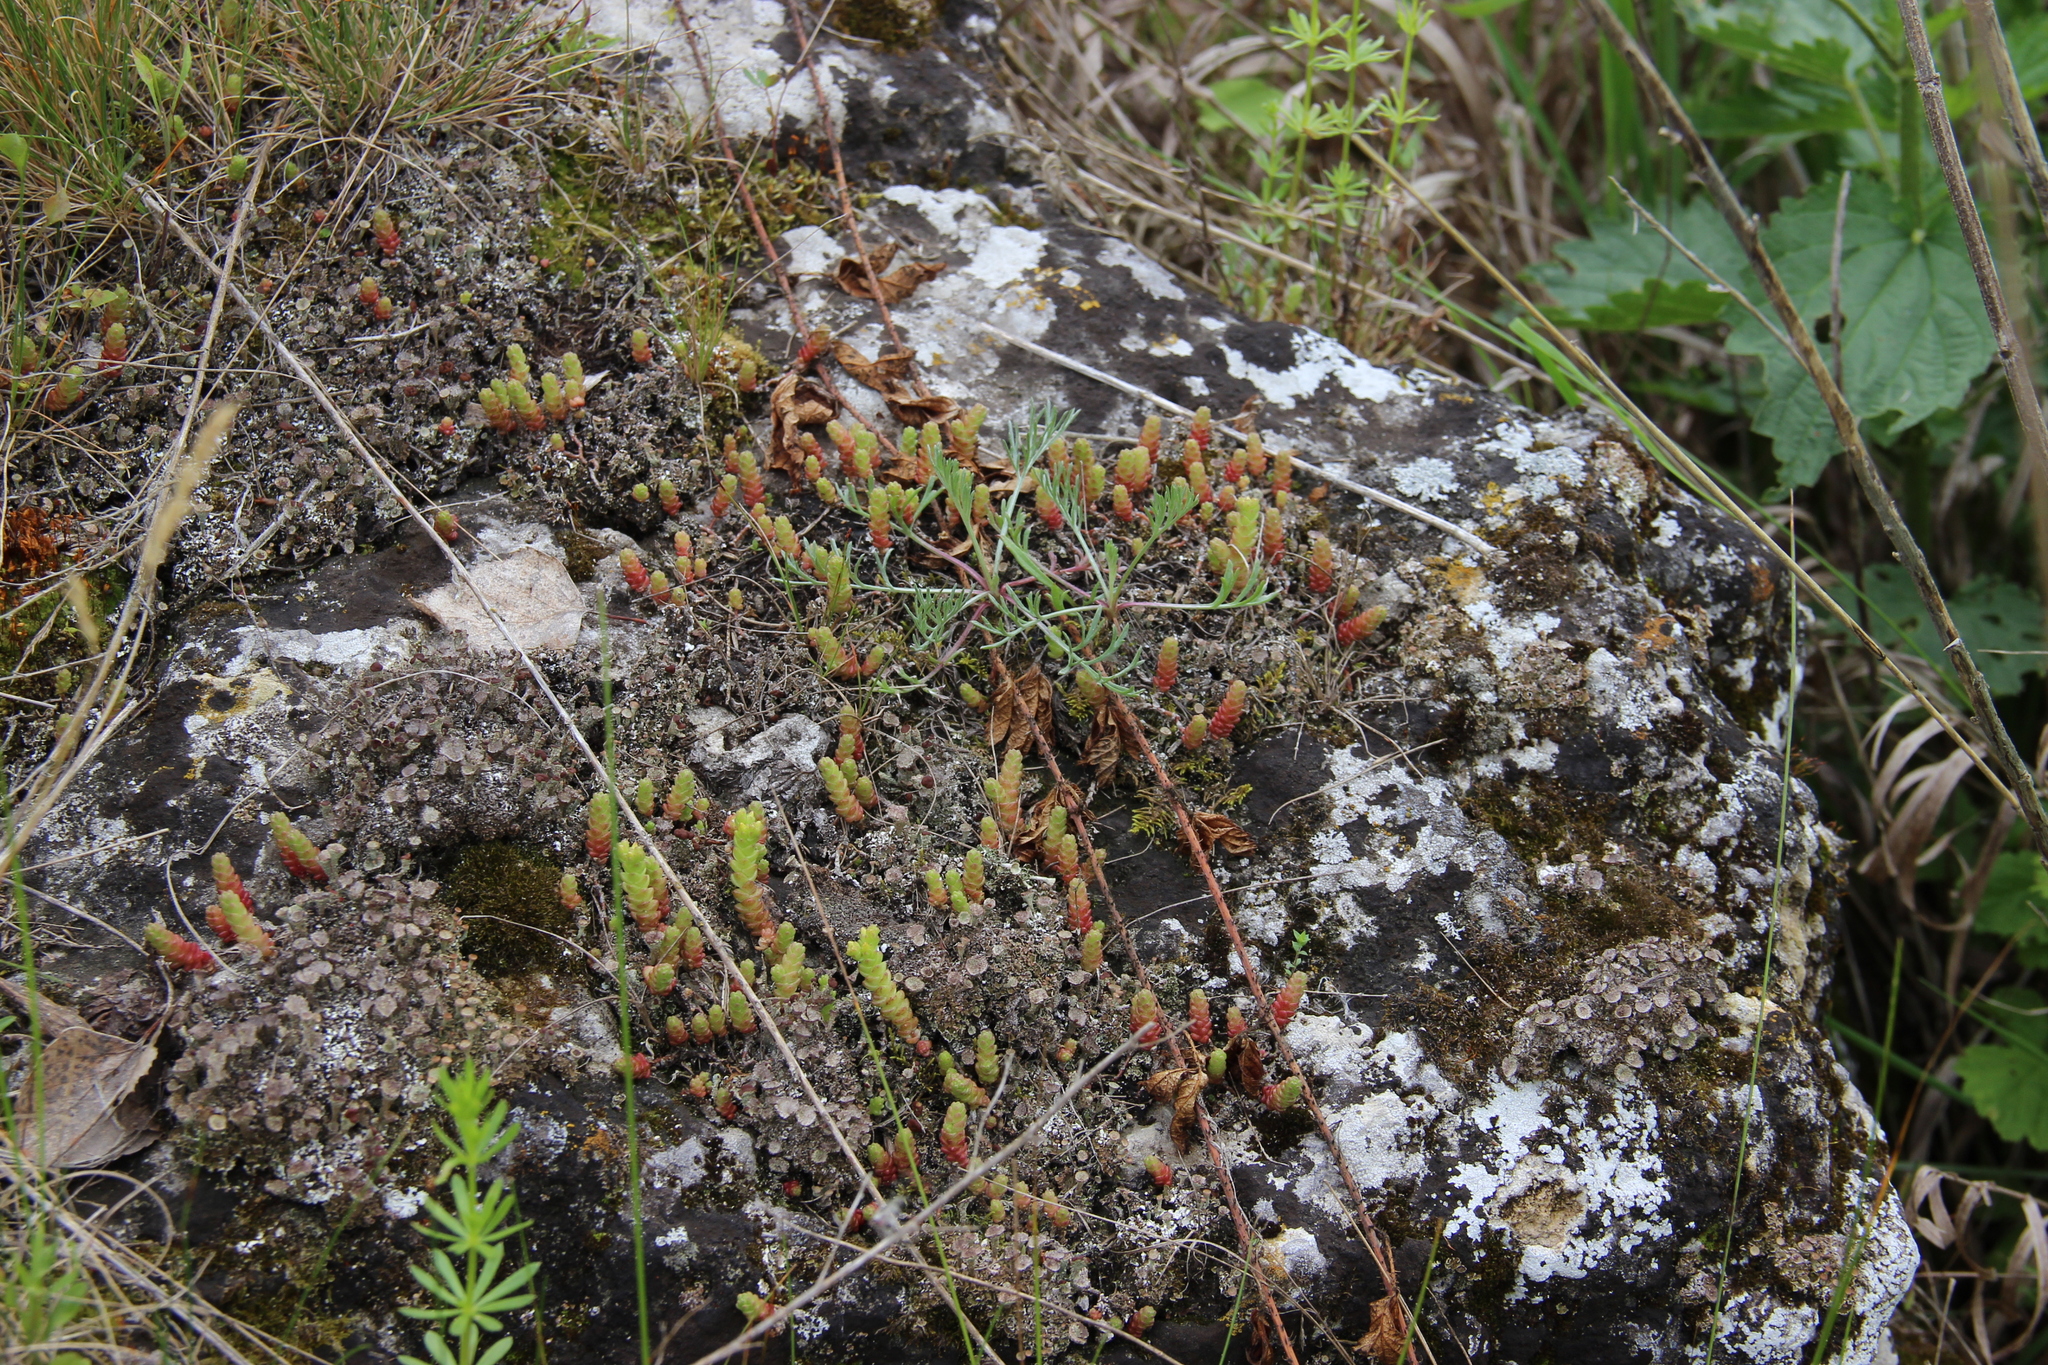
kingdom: Plantae
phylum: Tracheophyta
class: Magnoliopsida
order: Saxifragales
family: Crassulaceae
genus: Sedum
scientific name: Sedum acre
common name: Biting stonecrop
